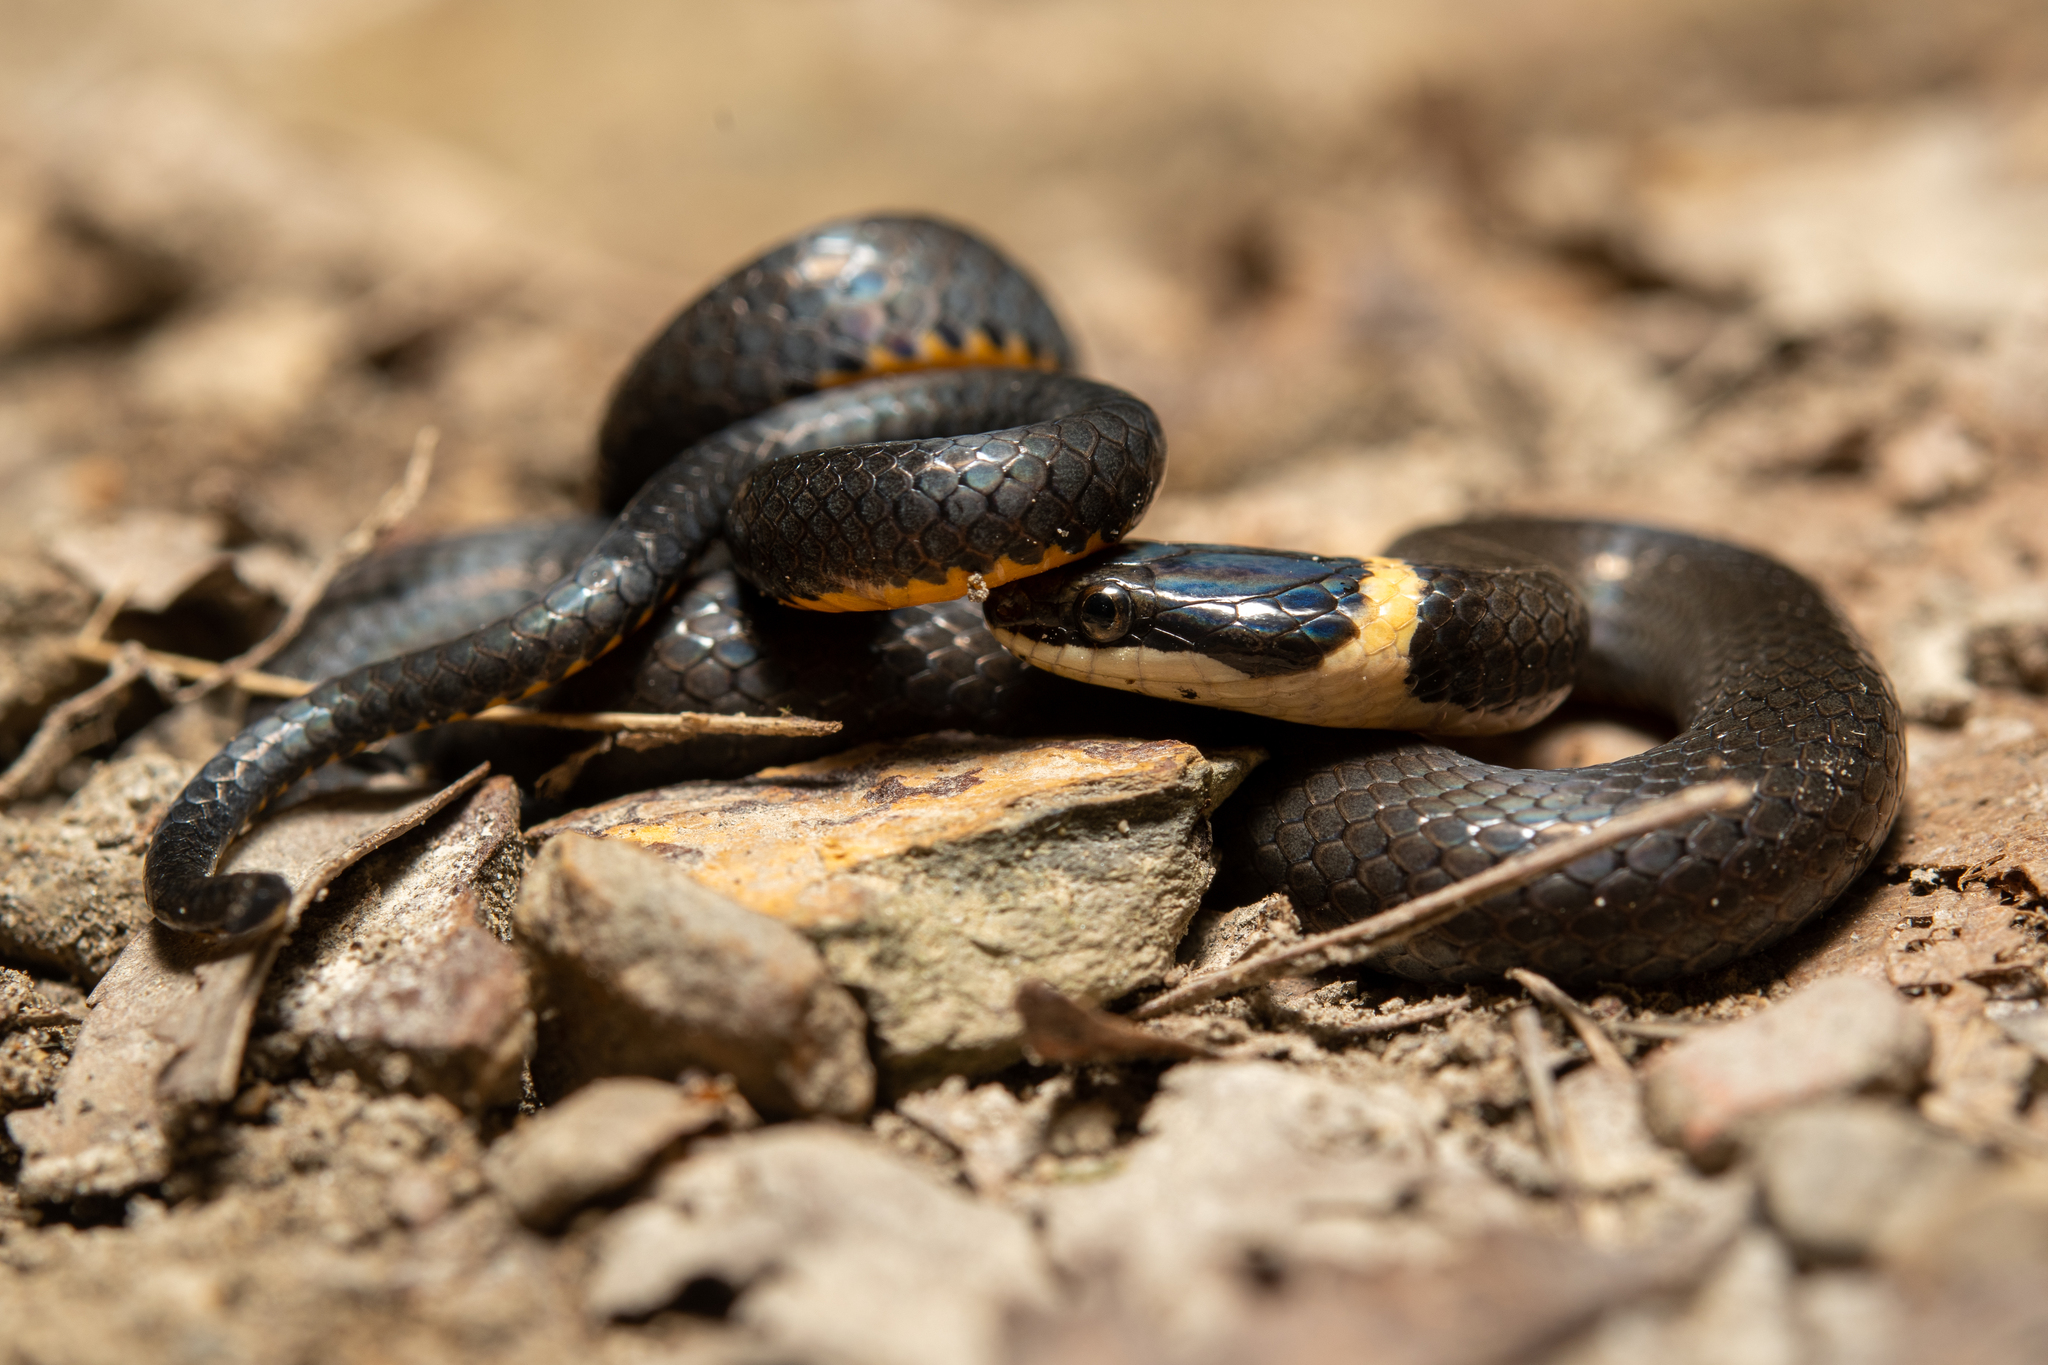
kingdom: Animalia
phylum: Chordata
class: Squamata
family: Colubridae
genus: Diadophis
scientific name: Diadophis punctatus
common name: Ringneck snake
